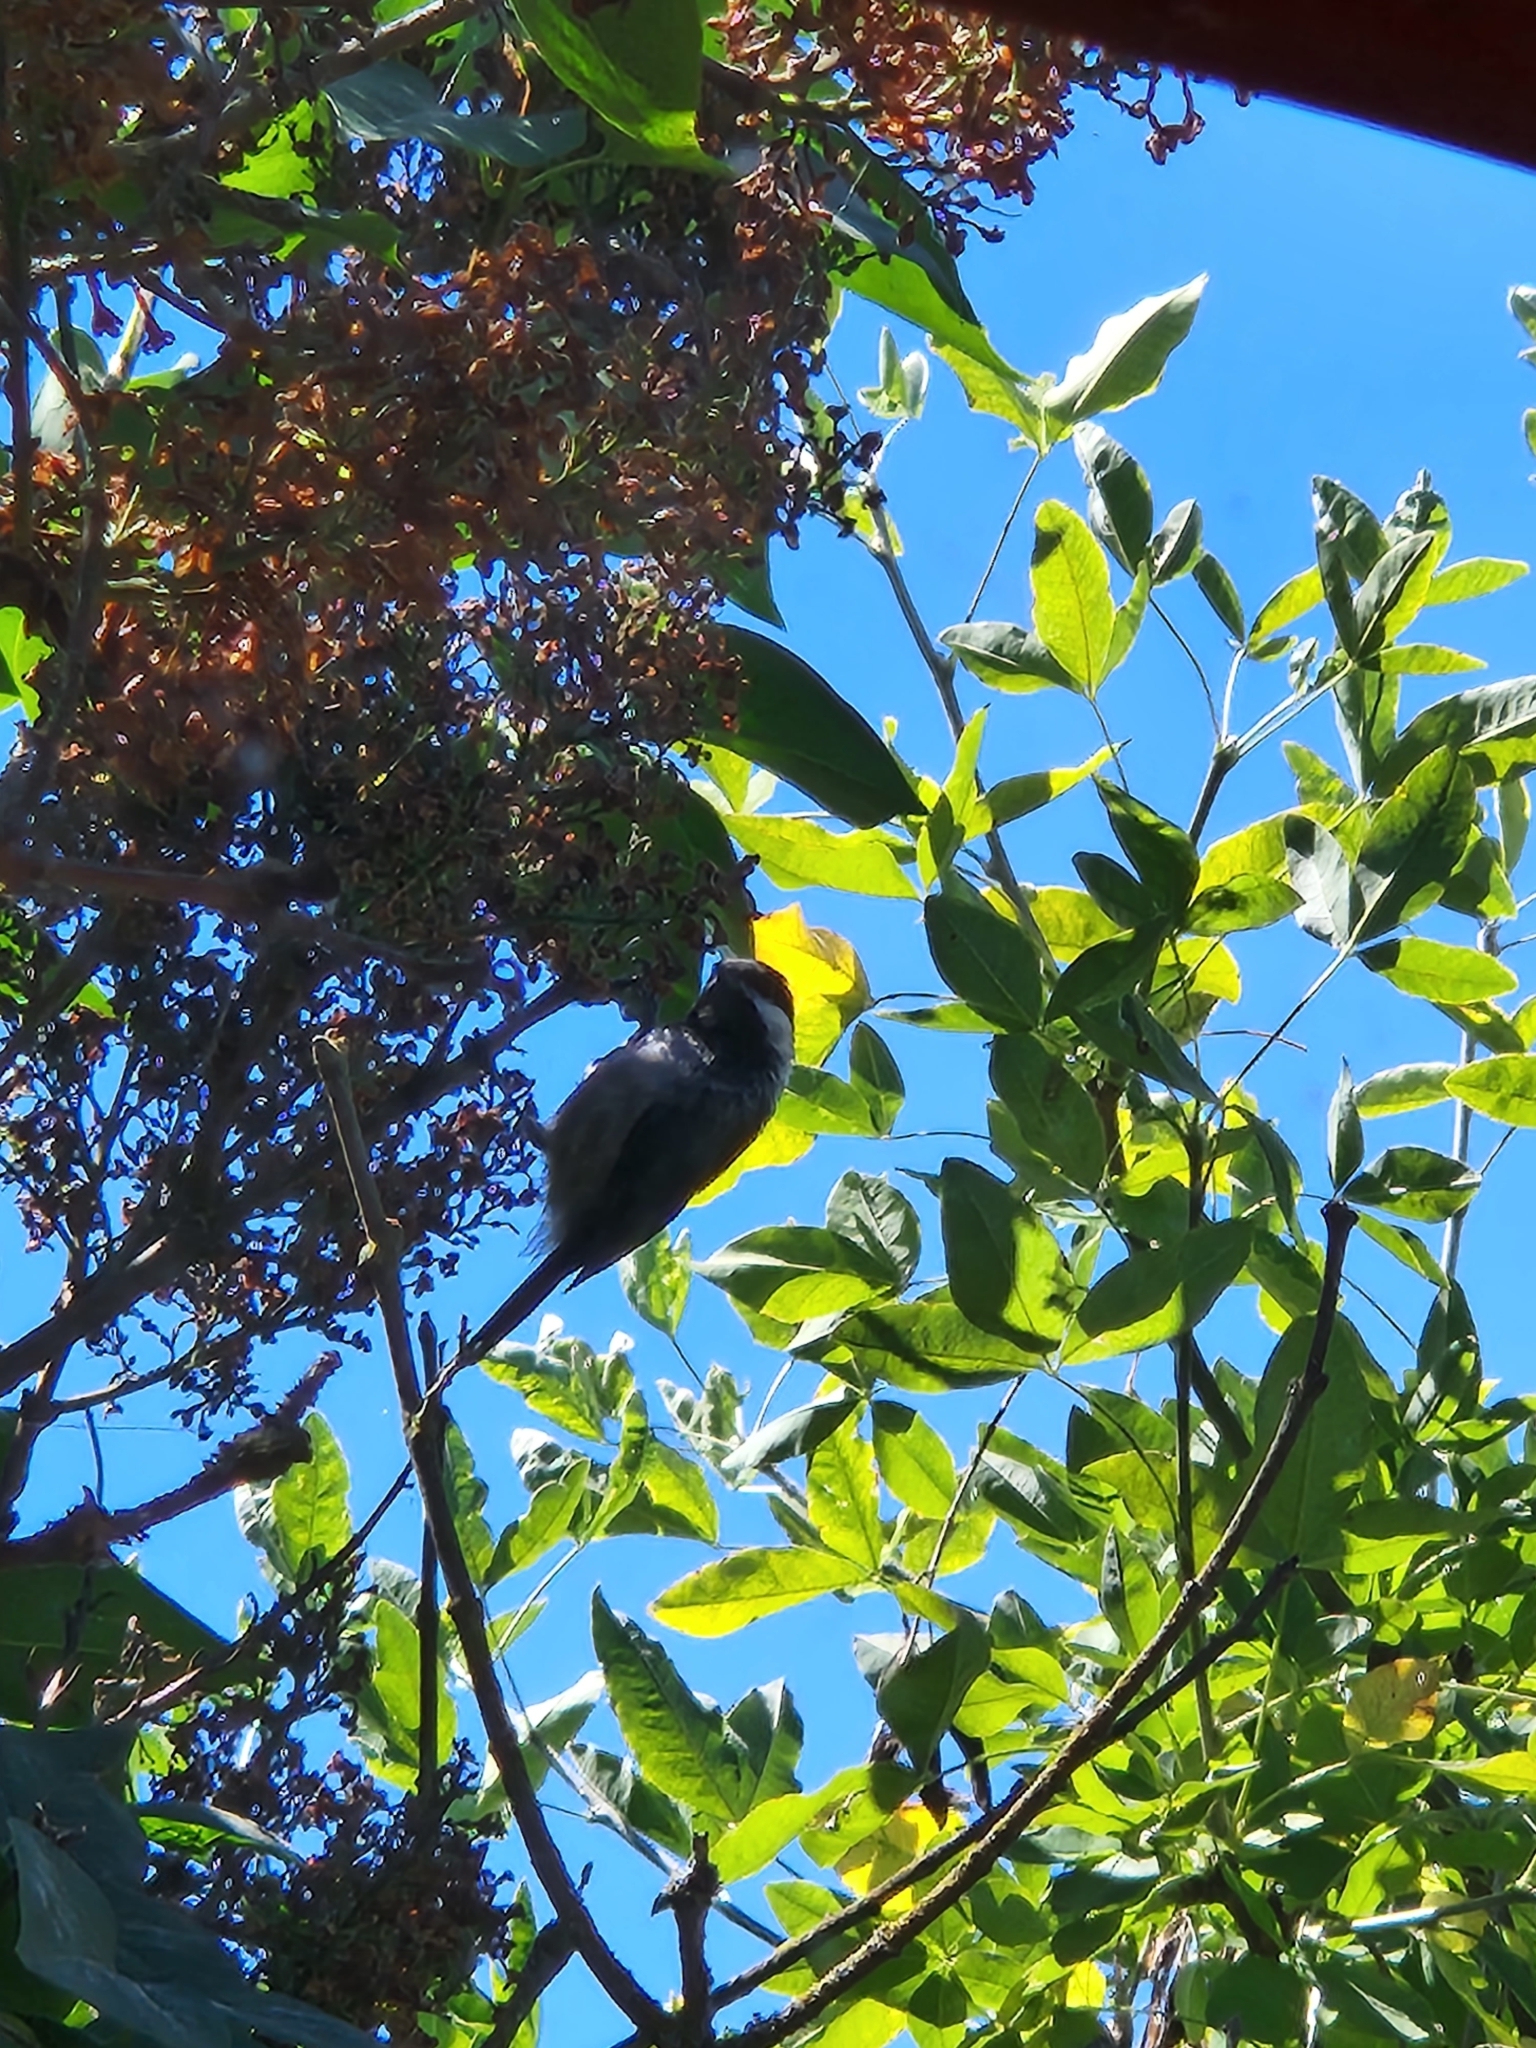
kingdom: Animalia
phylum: Chordata
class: Aves
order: Passeriformes
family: Paridae
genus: Poecile
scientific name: Poecile atricapillus
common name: Black-capped chickadee
